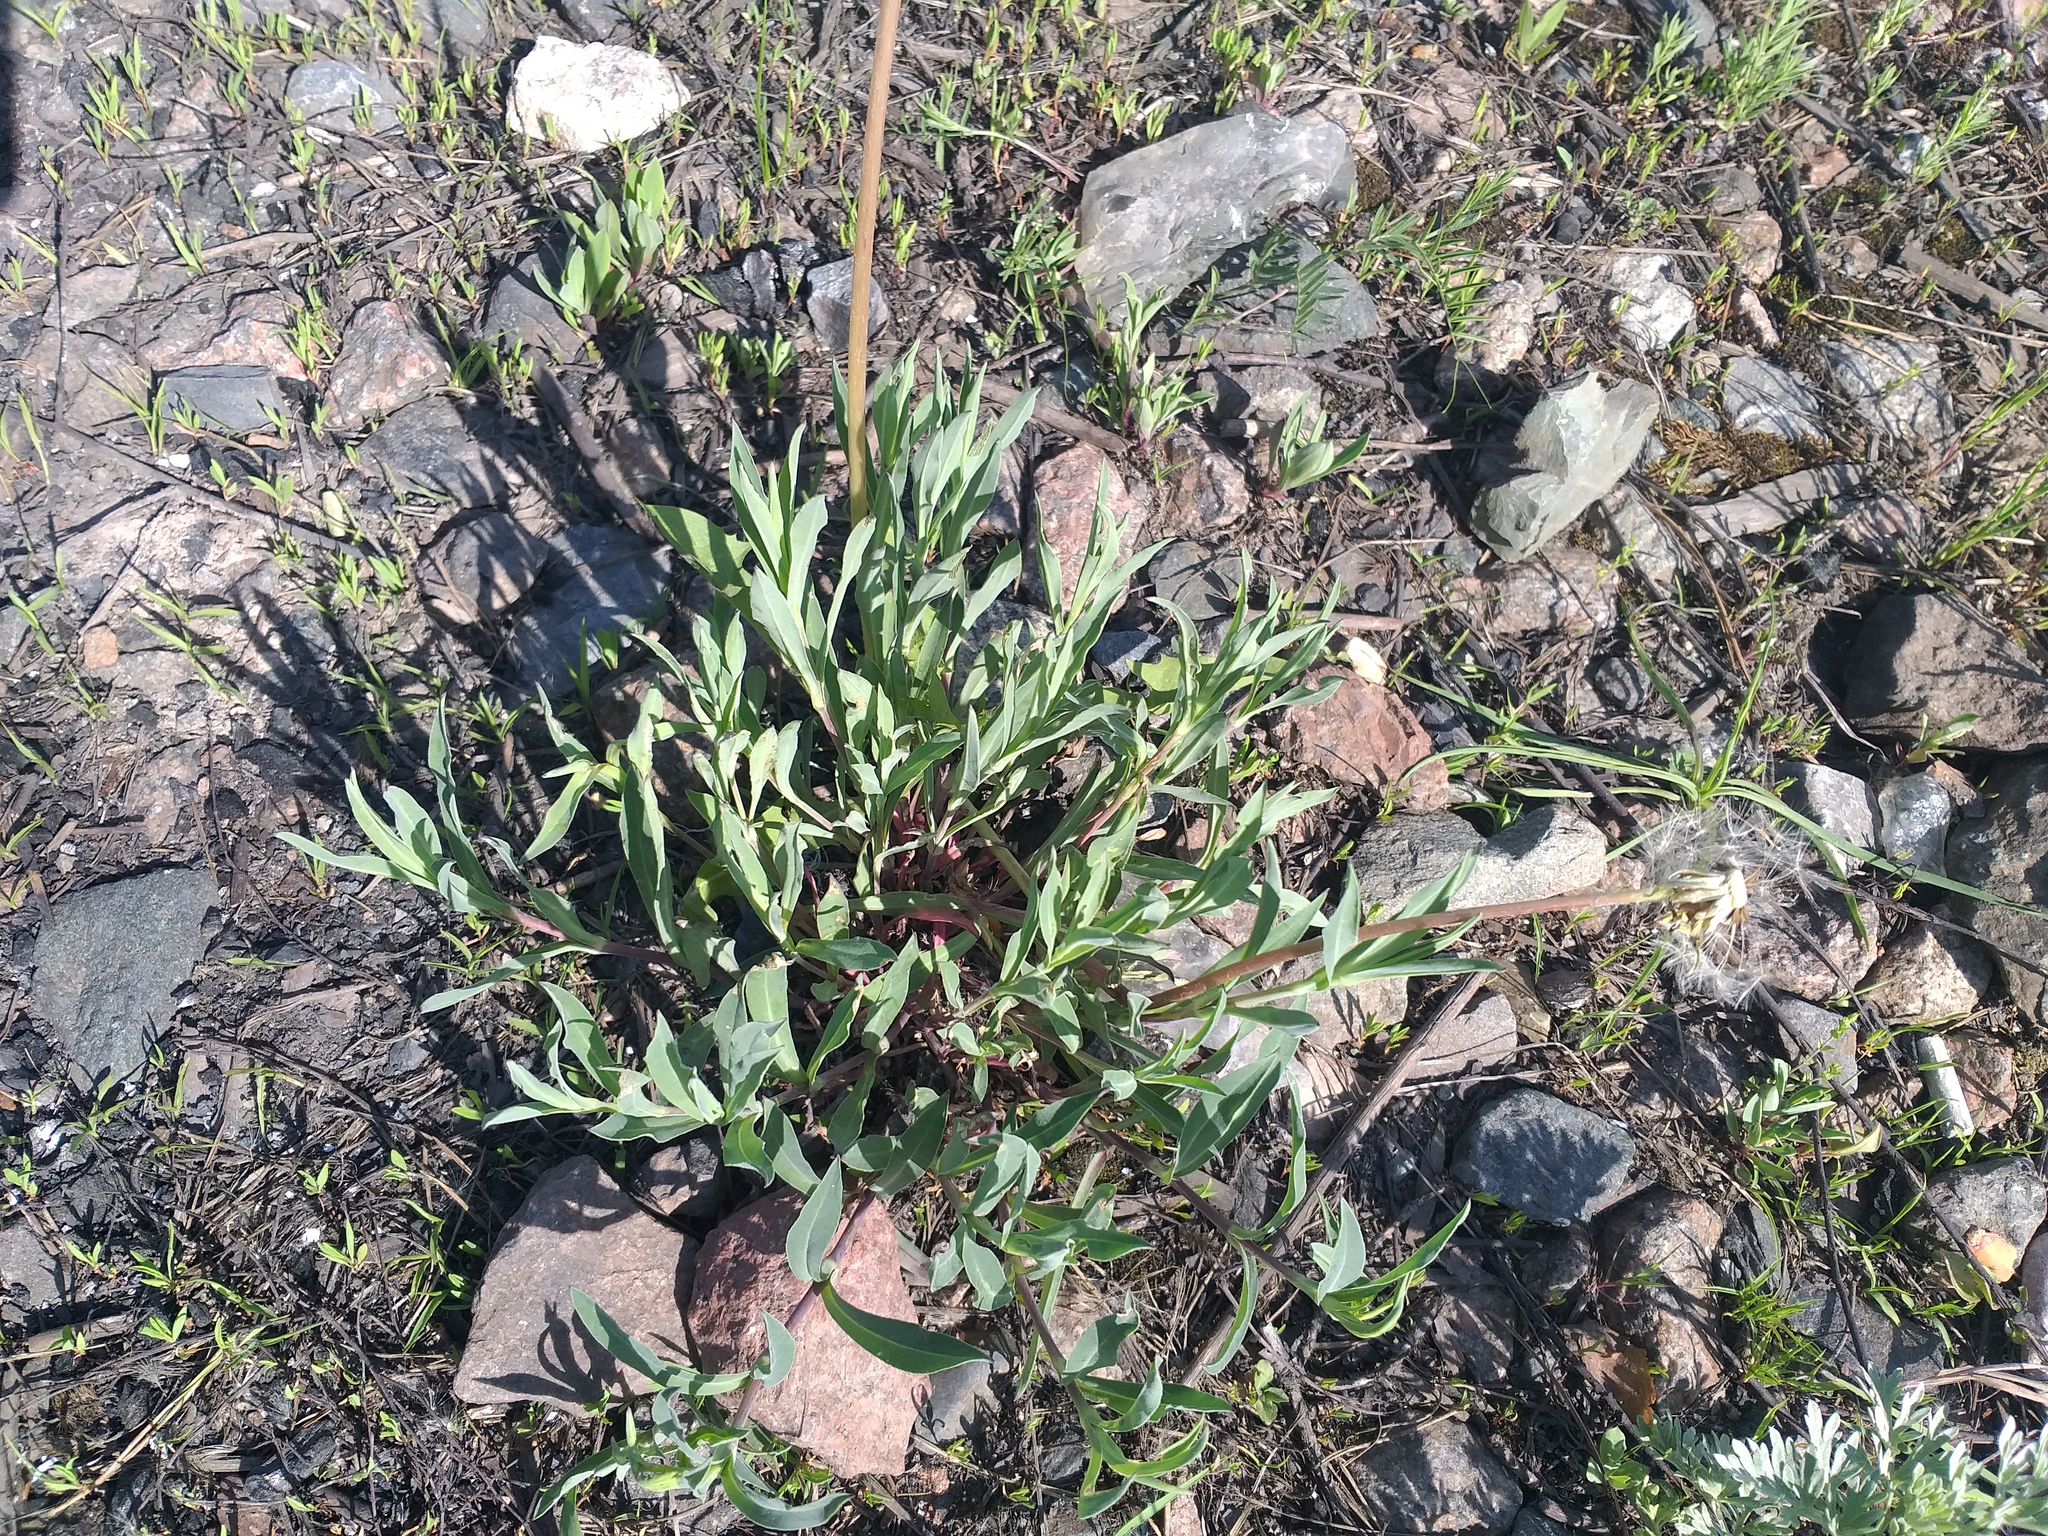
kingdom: Plantae
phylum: Tracheophyta
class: Magnoliopsida
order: Caryophyllales
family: Caryophyllaceae
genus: Silene
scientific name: Silene vulgaris
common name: Bladder campion
